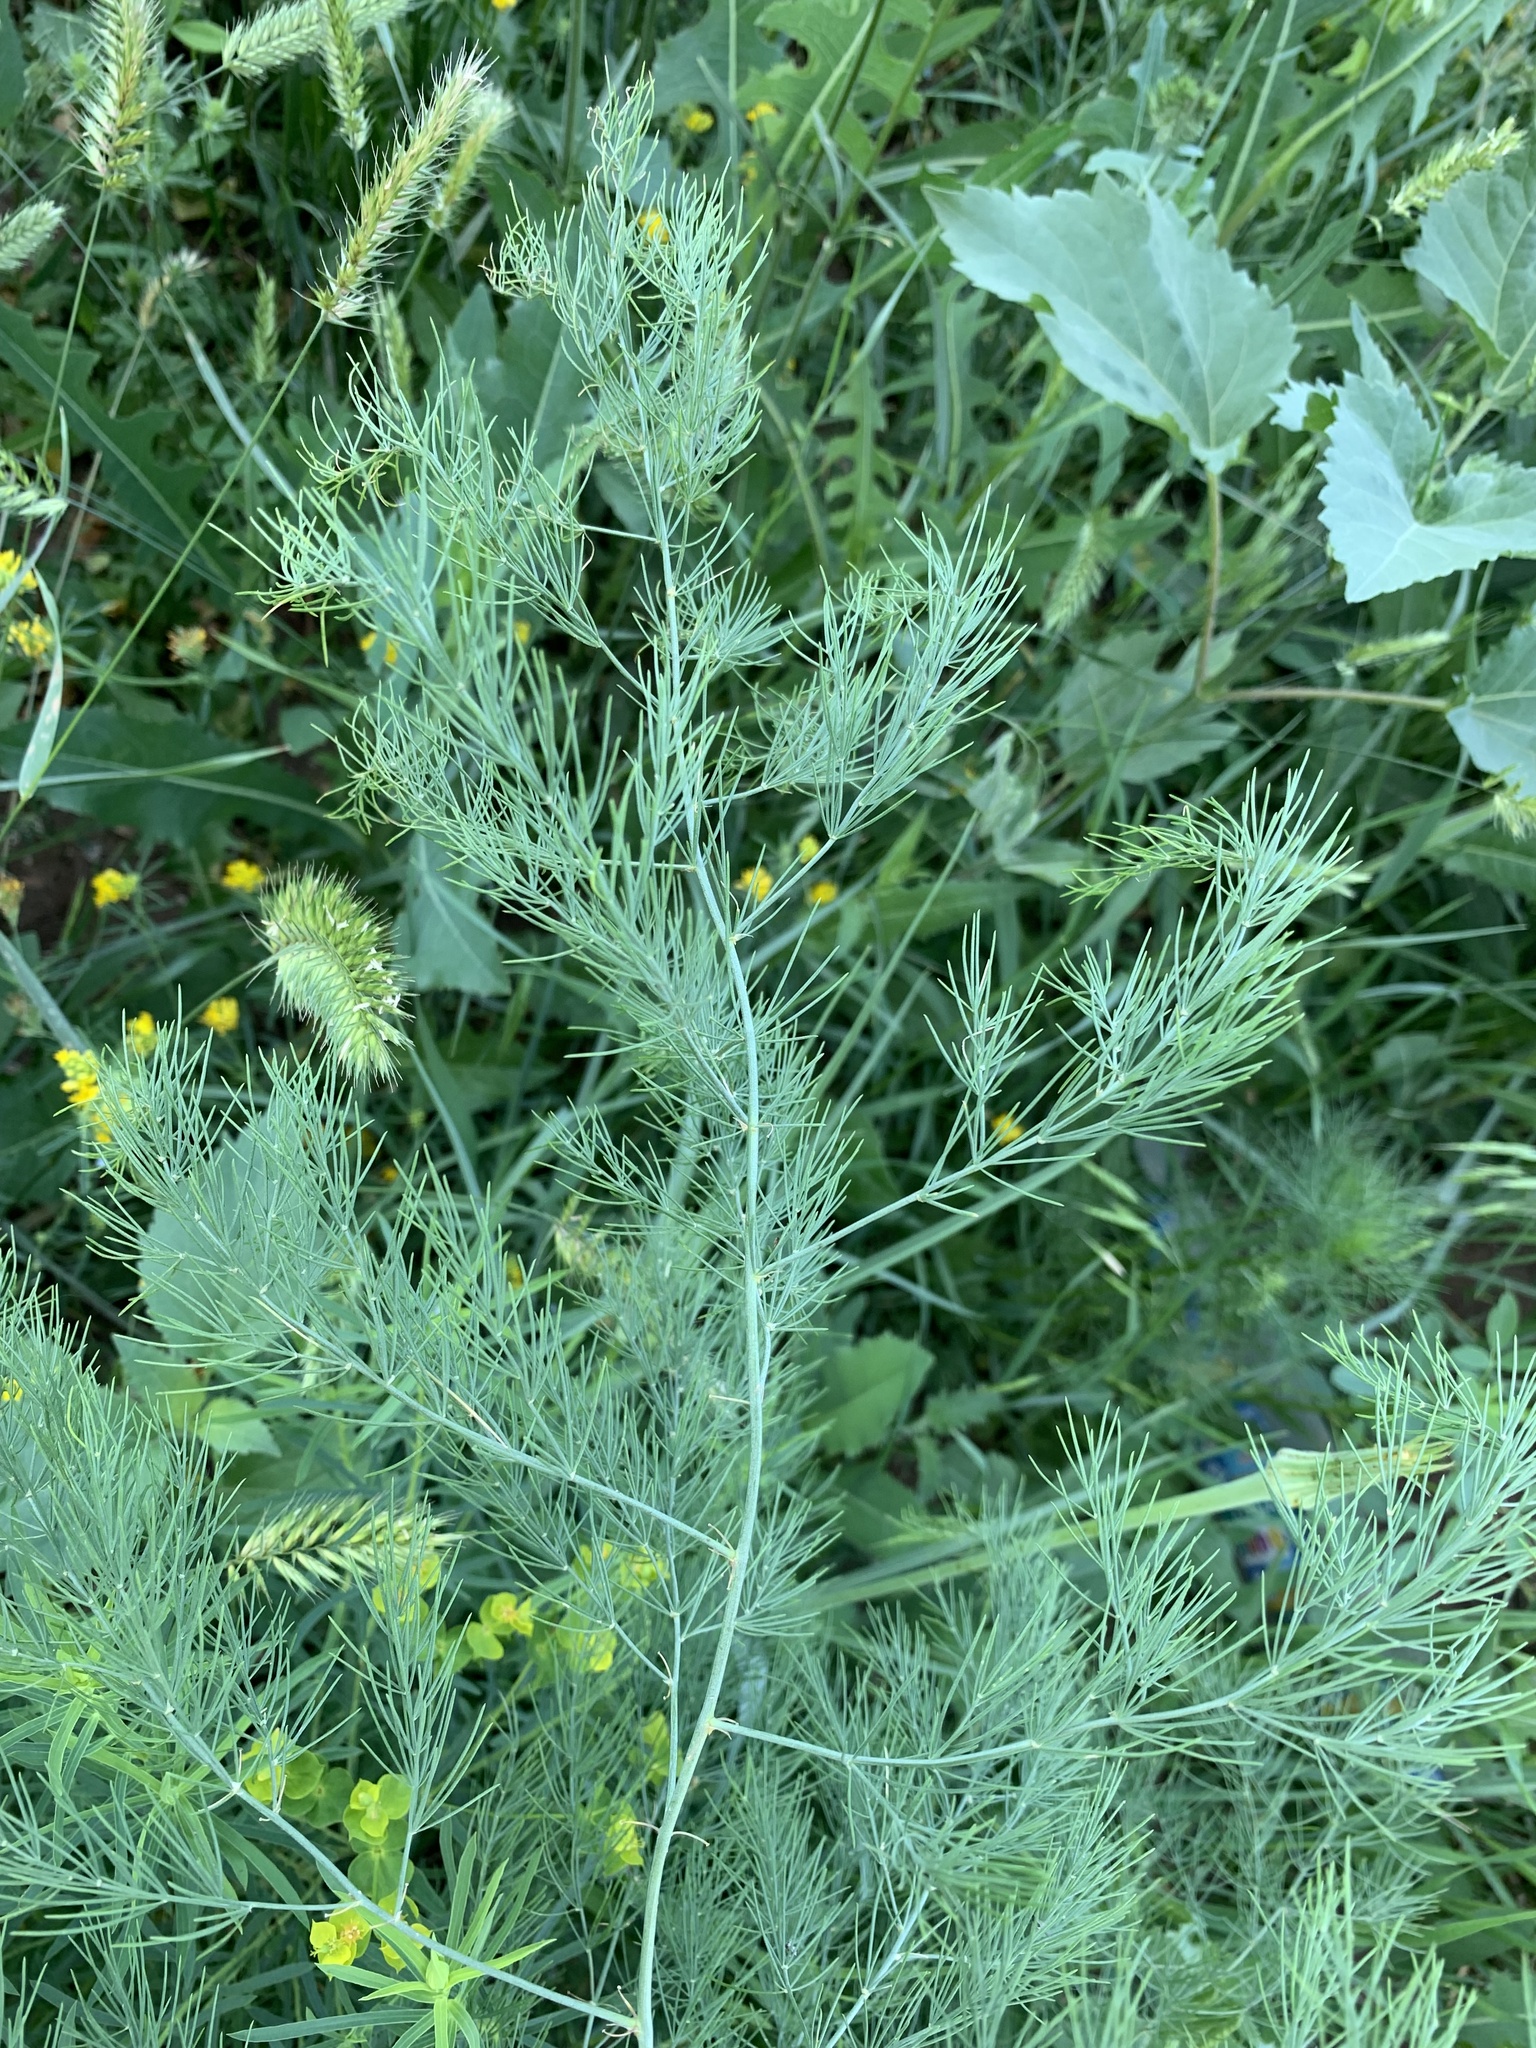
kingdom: Plantae
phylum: Tracheophyta
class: Liliopsida
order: Asparagales
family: Asparagaceae
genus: Asparagus
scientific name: Asparagus officinalis
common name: Garden asparagus
